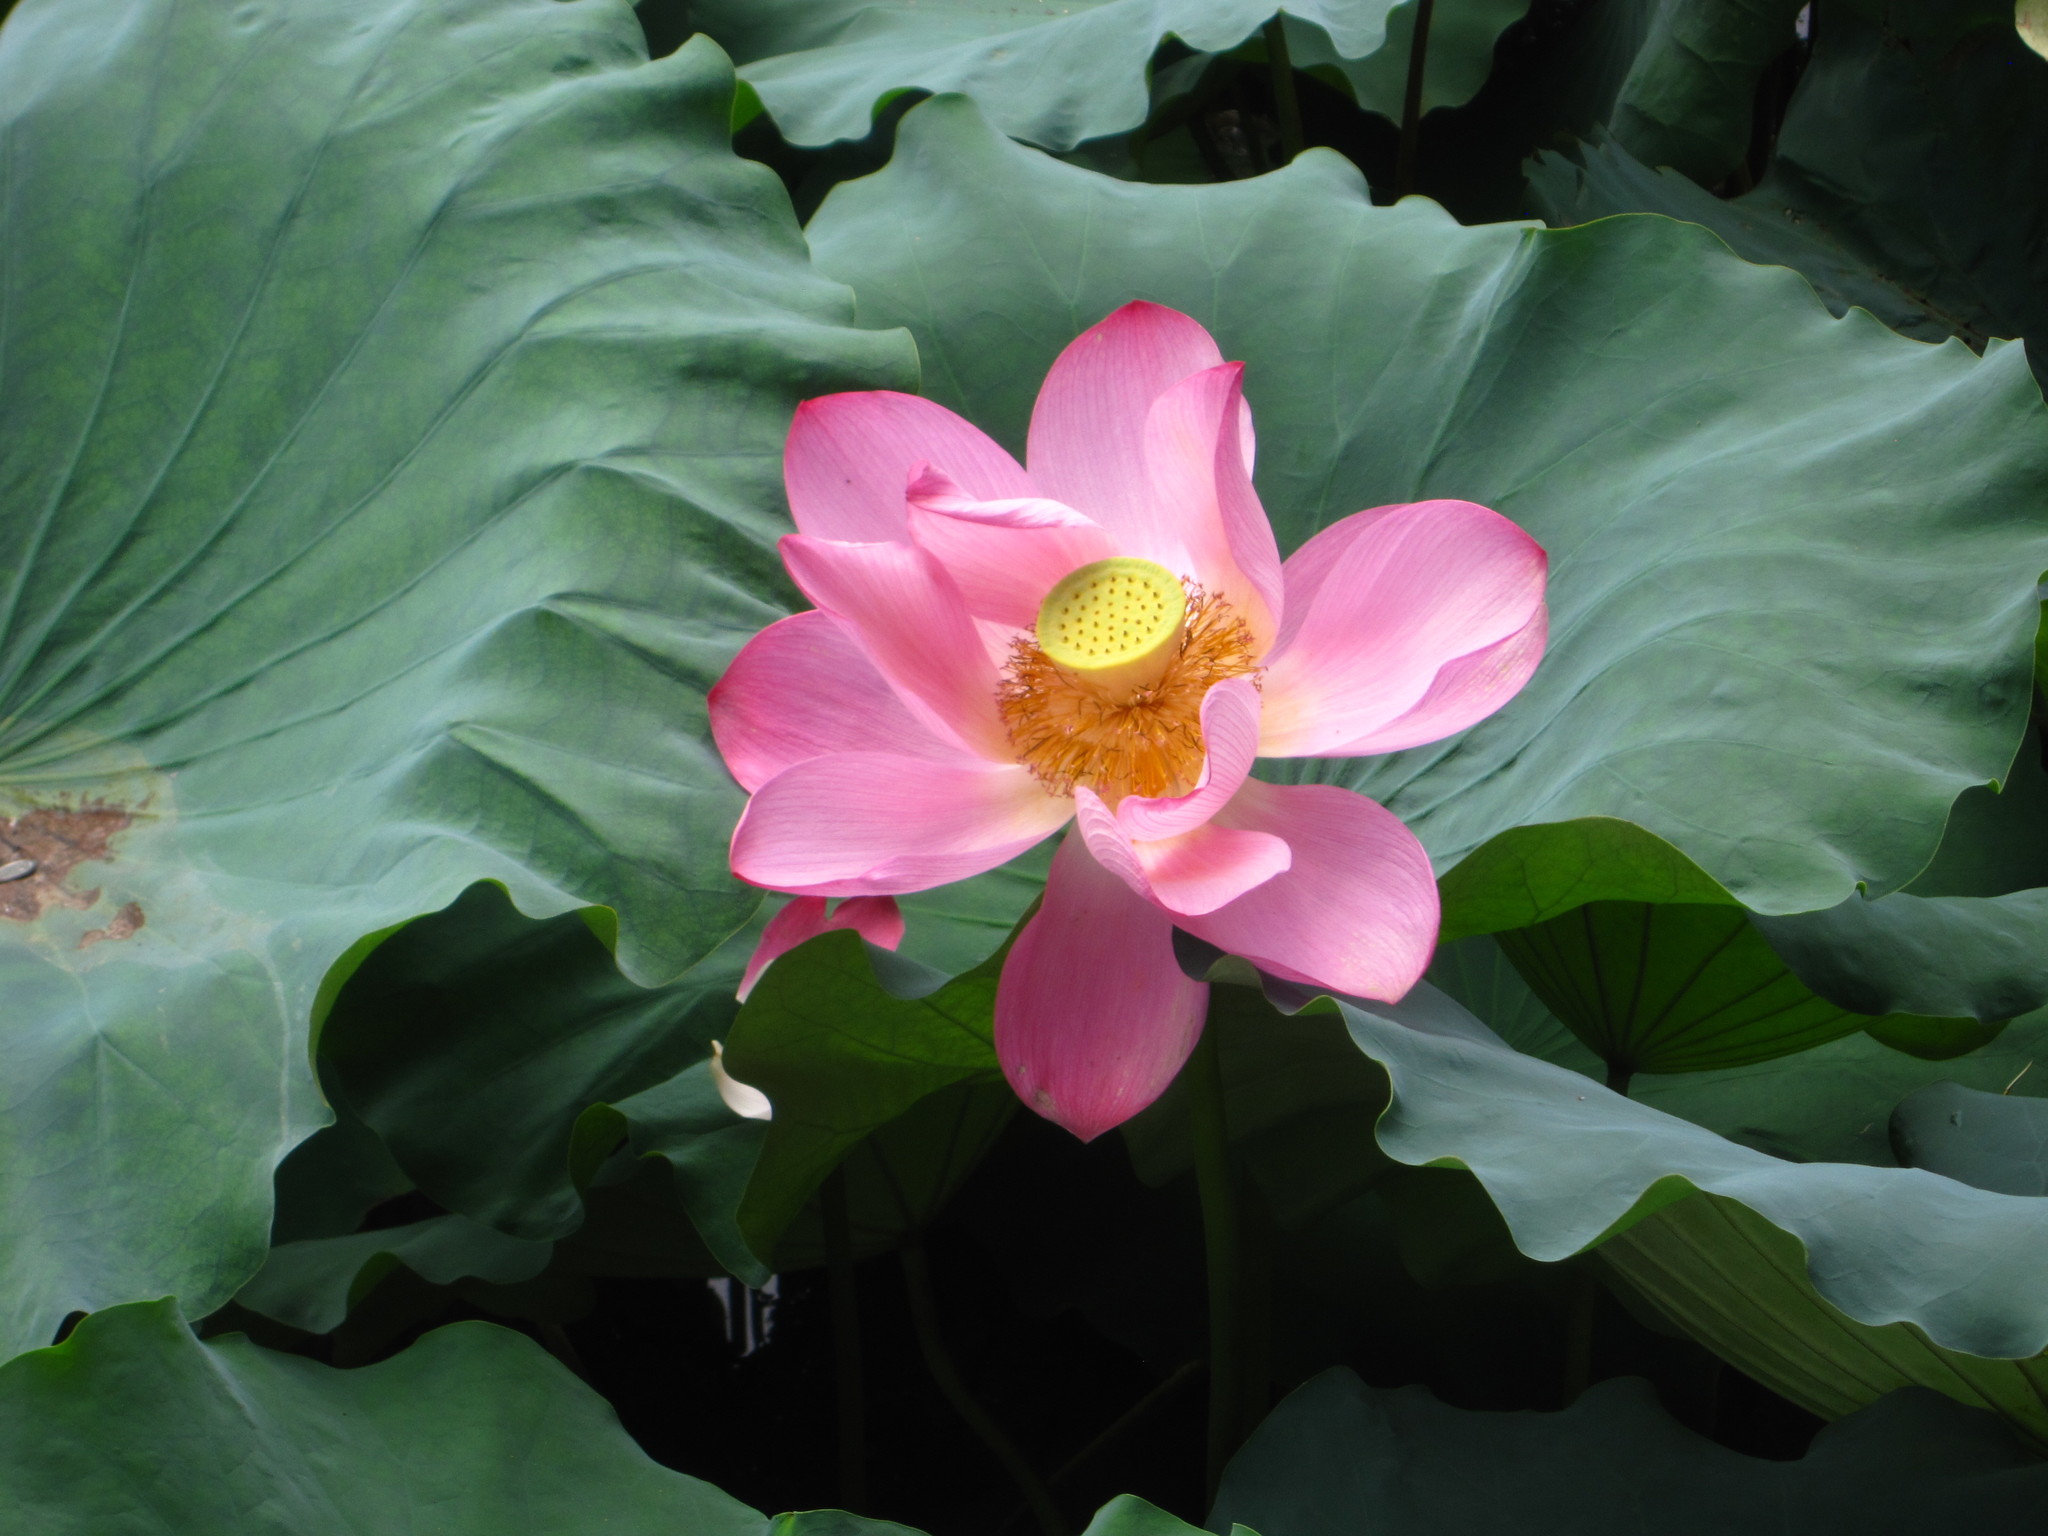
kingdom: Plantae
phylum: Tracheophyta
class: Magnoliopsida
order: Proteales
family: Nelumbonaceae
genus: Nelumbo
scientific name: Nelumbo nucifera
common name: Sacred lotus
